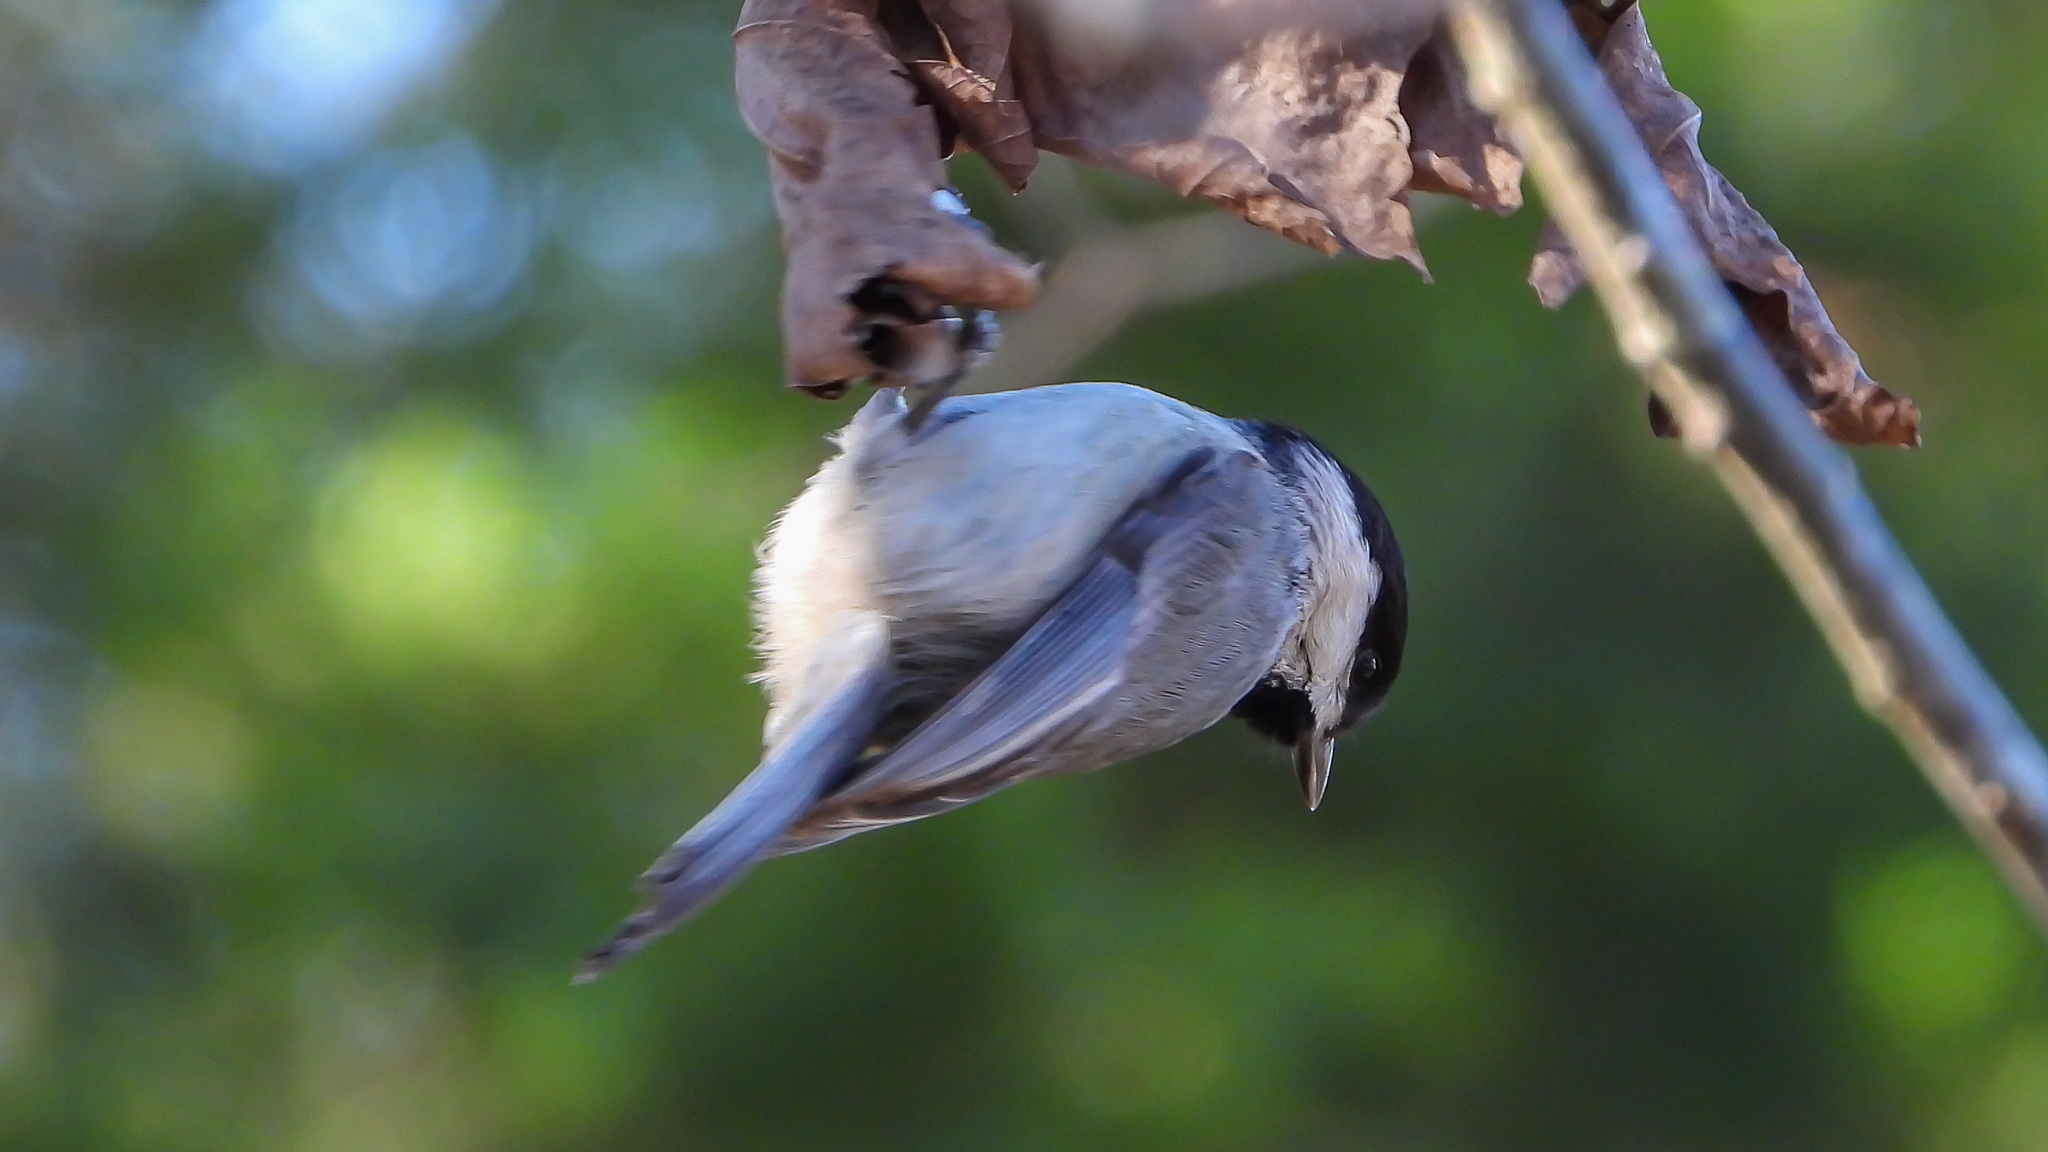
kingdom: Animalia
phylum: Chordata
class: Aves
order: Passeriformes
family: Paridae
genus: Poecile
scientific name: Poecile carolinensis
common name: Carolina chickadee
